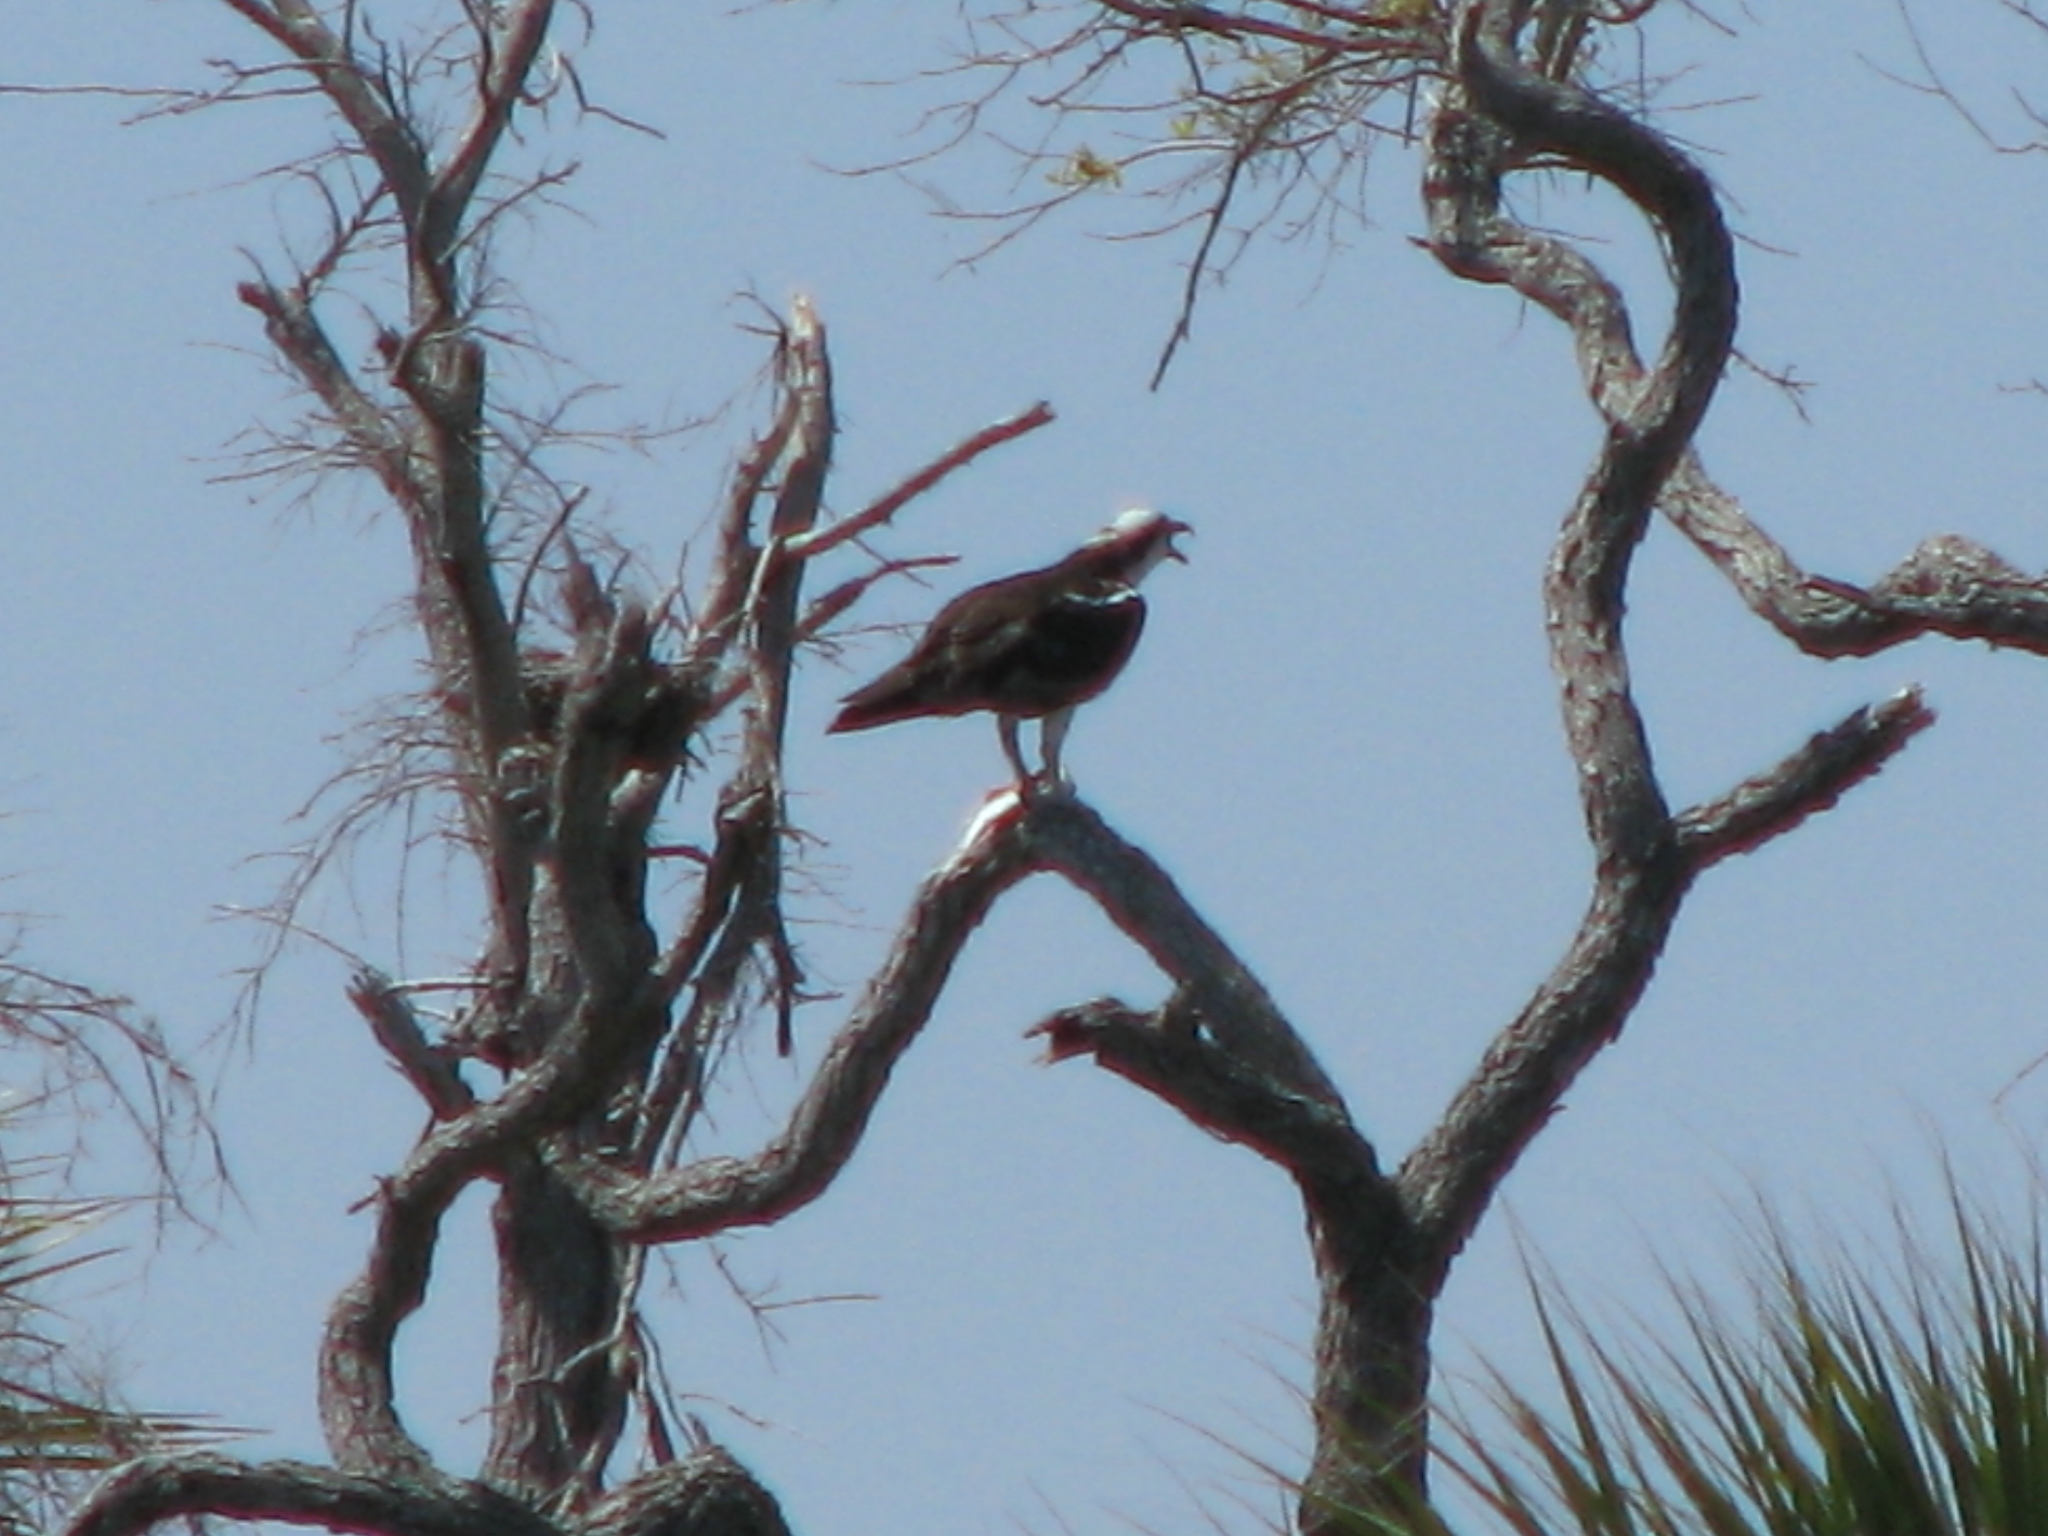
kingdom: Animalia
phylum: Chordata
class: Aves
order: Accipitriformes
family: Pandionidae
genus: Pandion
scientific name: Pandion haliaetus
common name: Osprey
